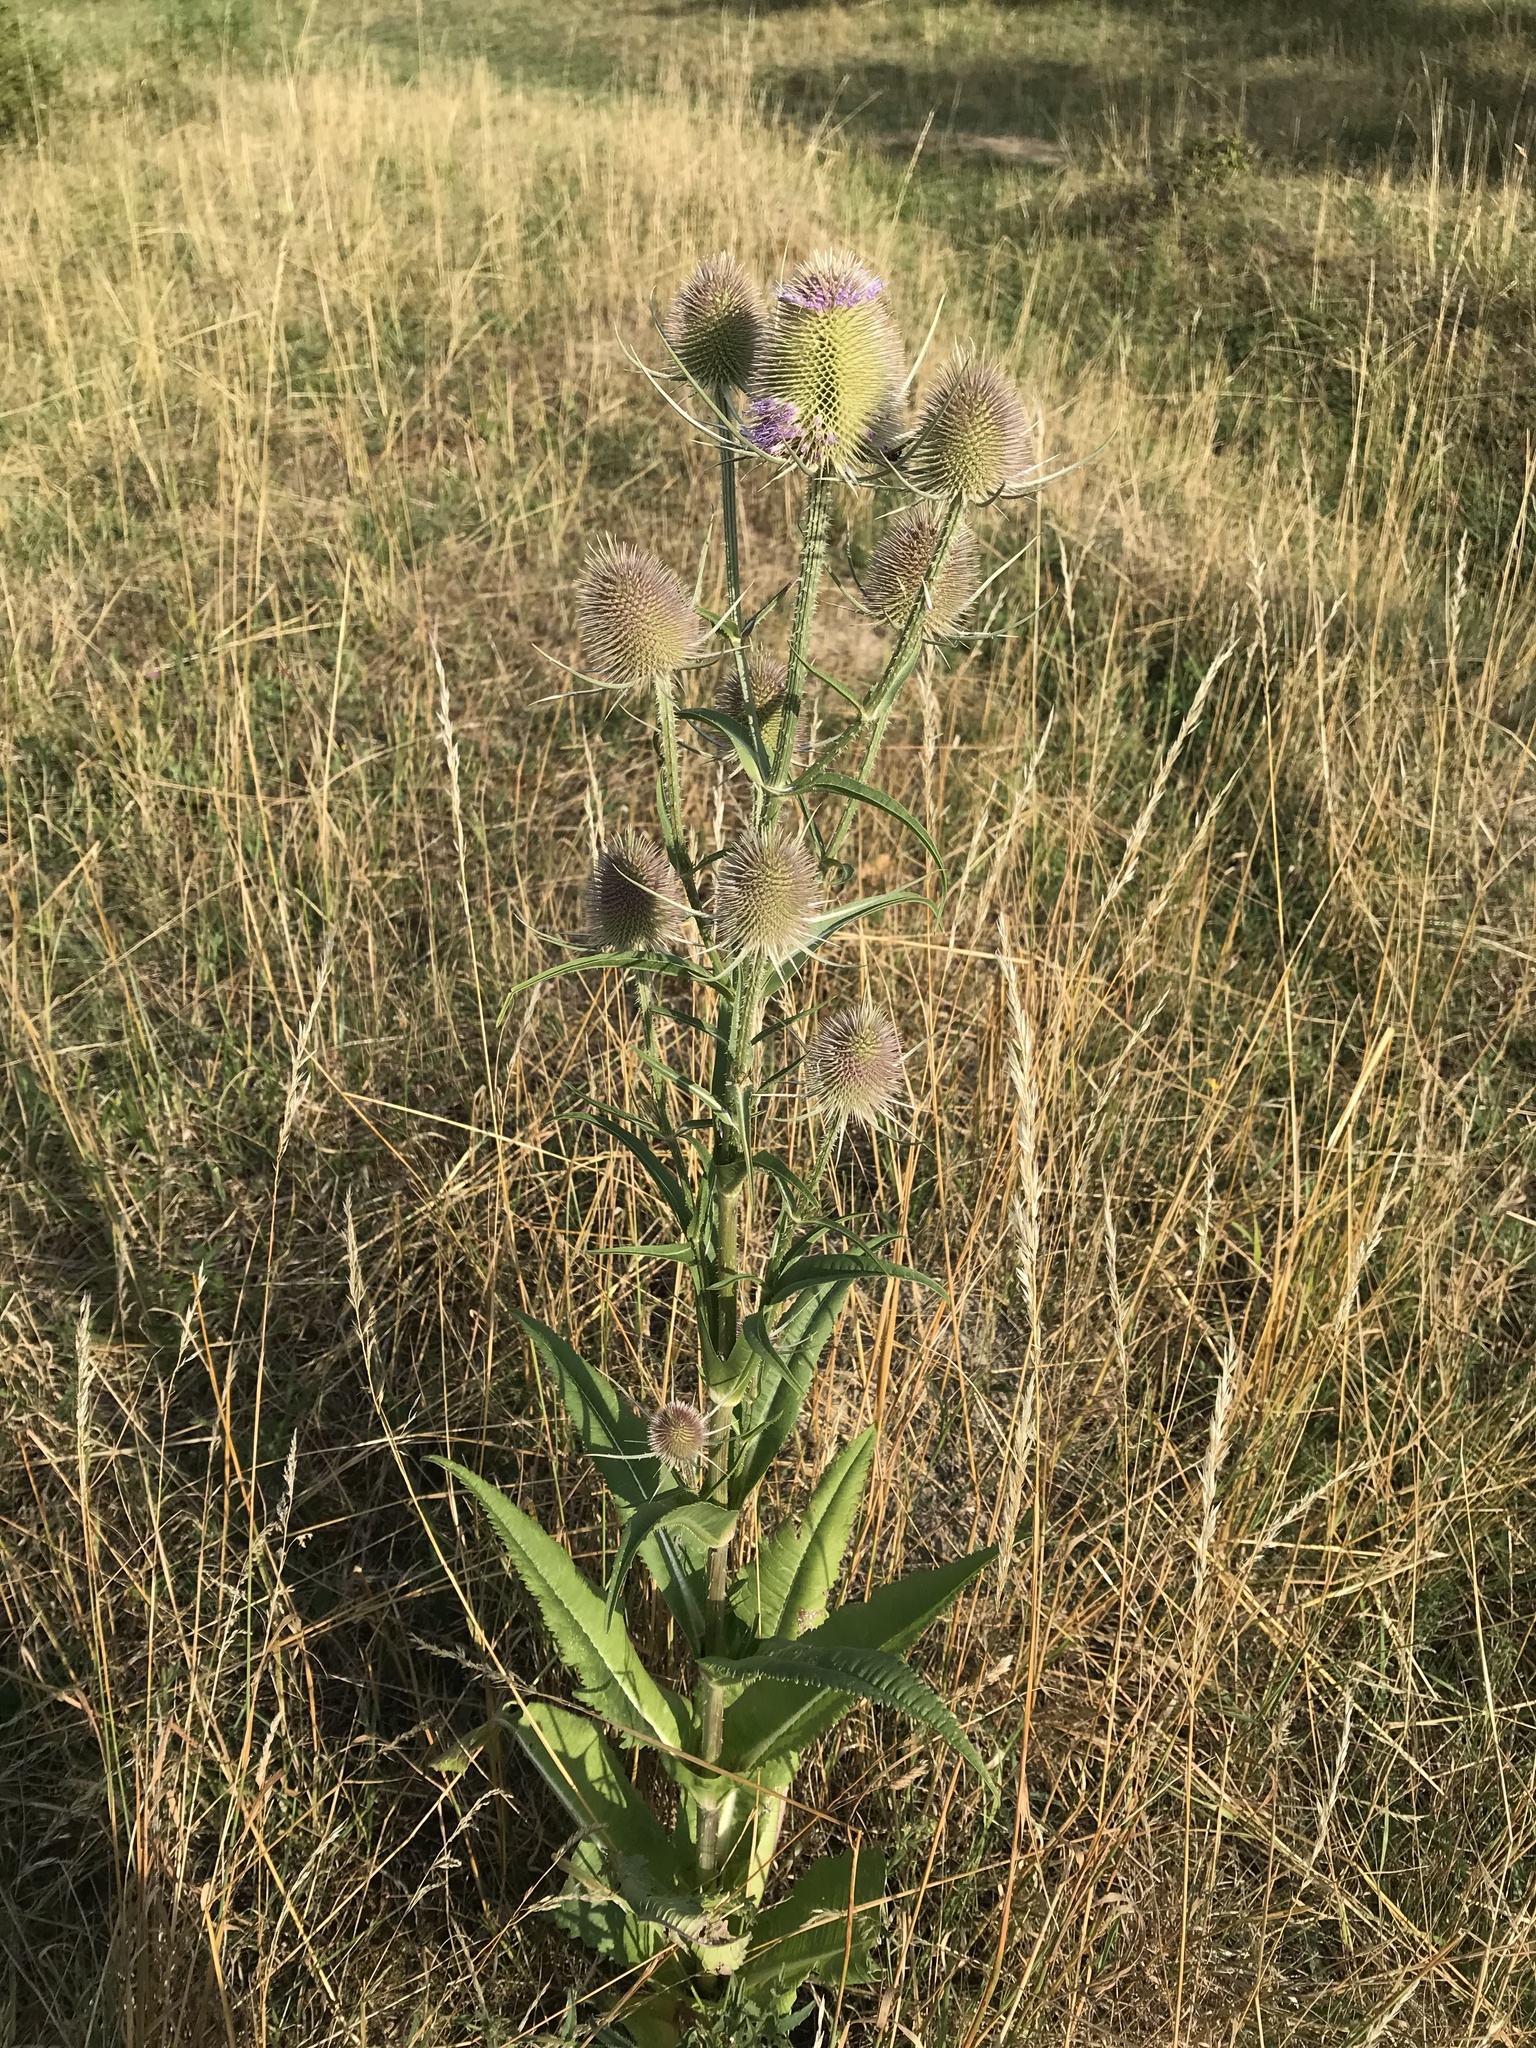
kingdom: Plantae
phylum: Tracheophyta
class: Magnoliopsida
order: Dipsacales
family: Caprifoliaceae
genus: Dipsacus
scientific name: Dipsacus fullonum
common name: Teasel
